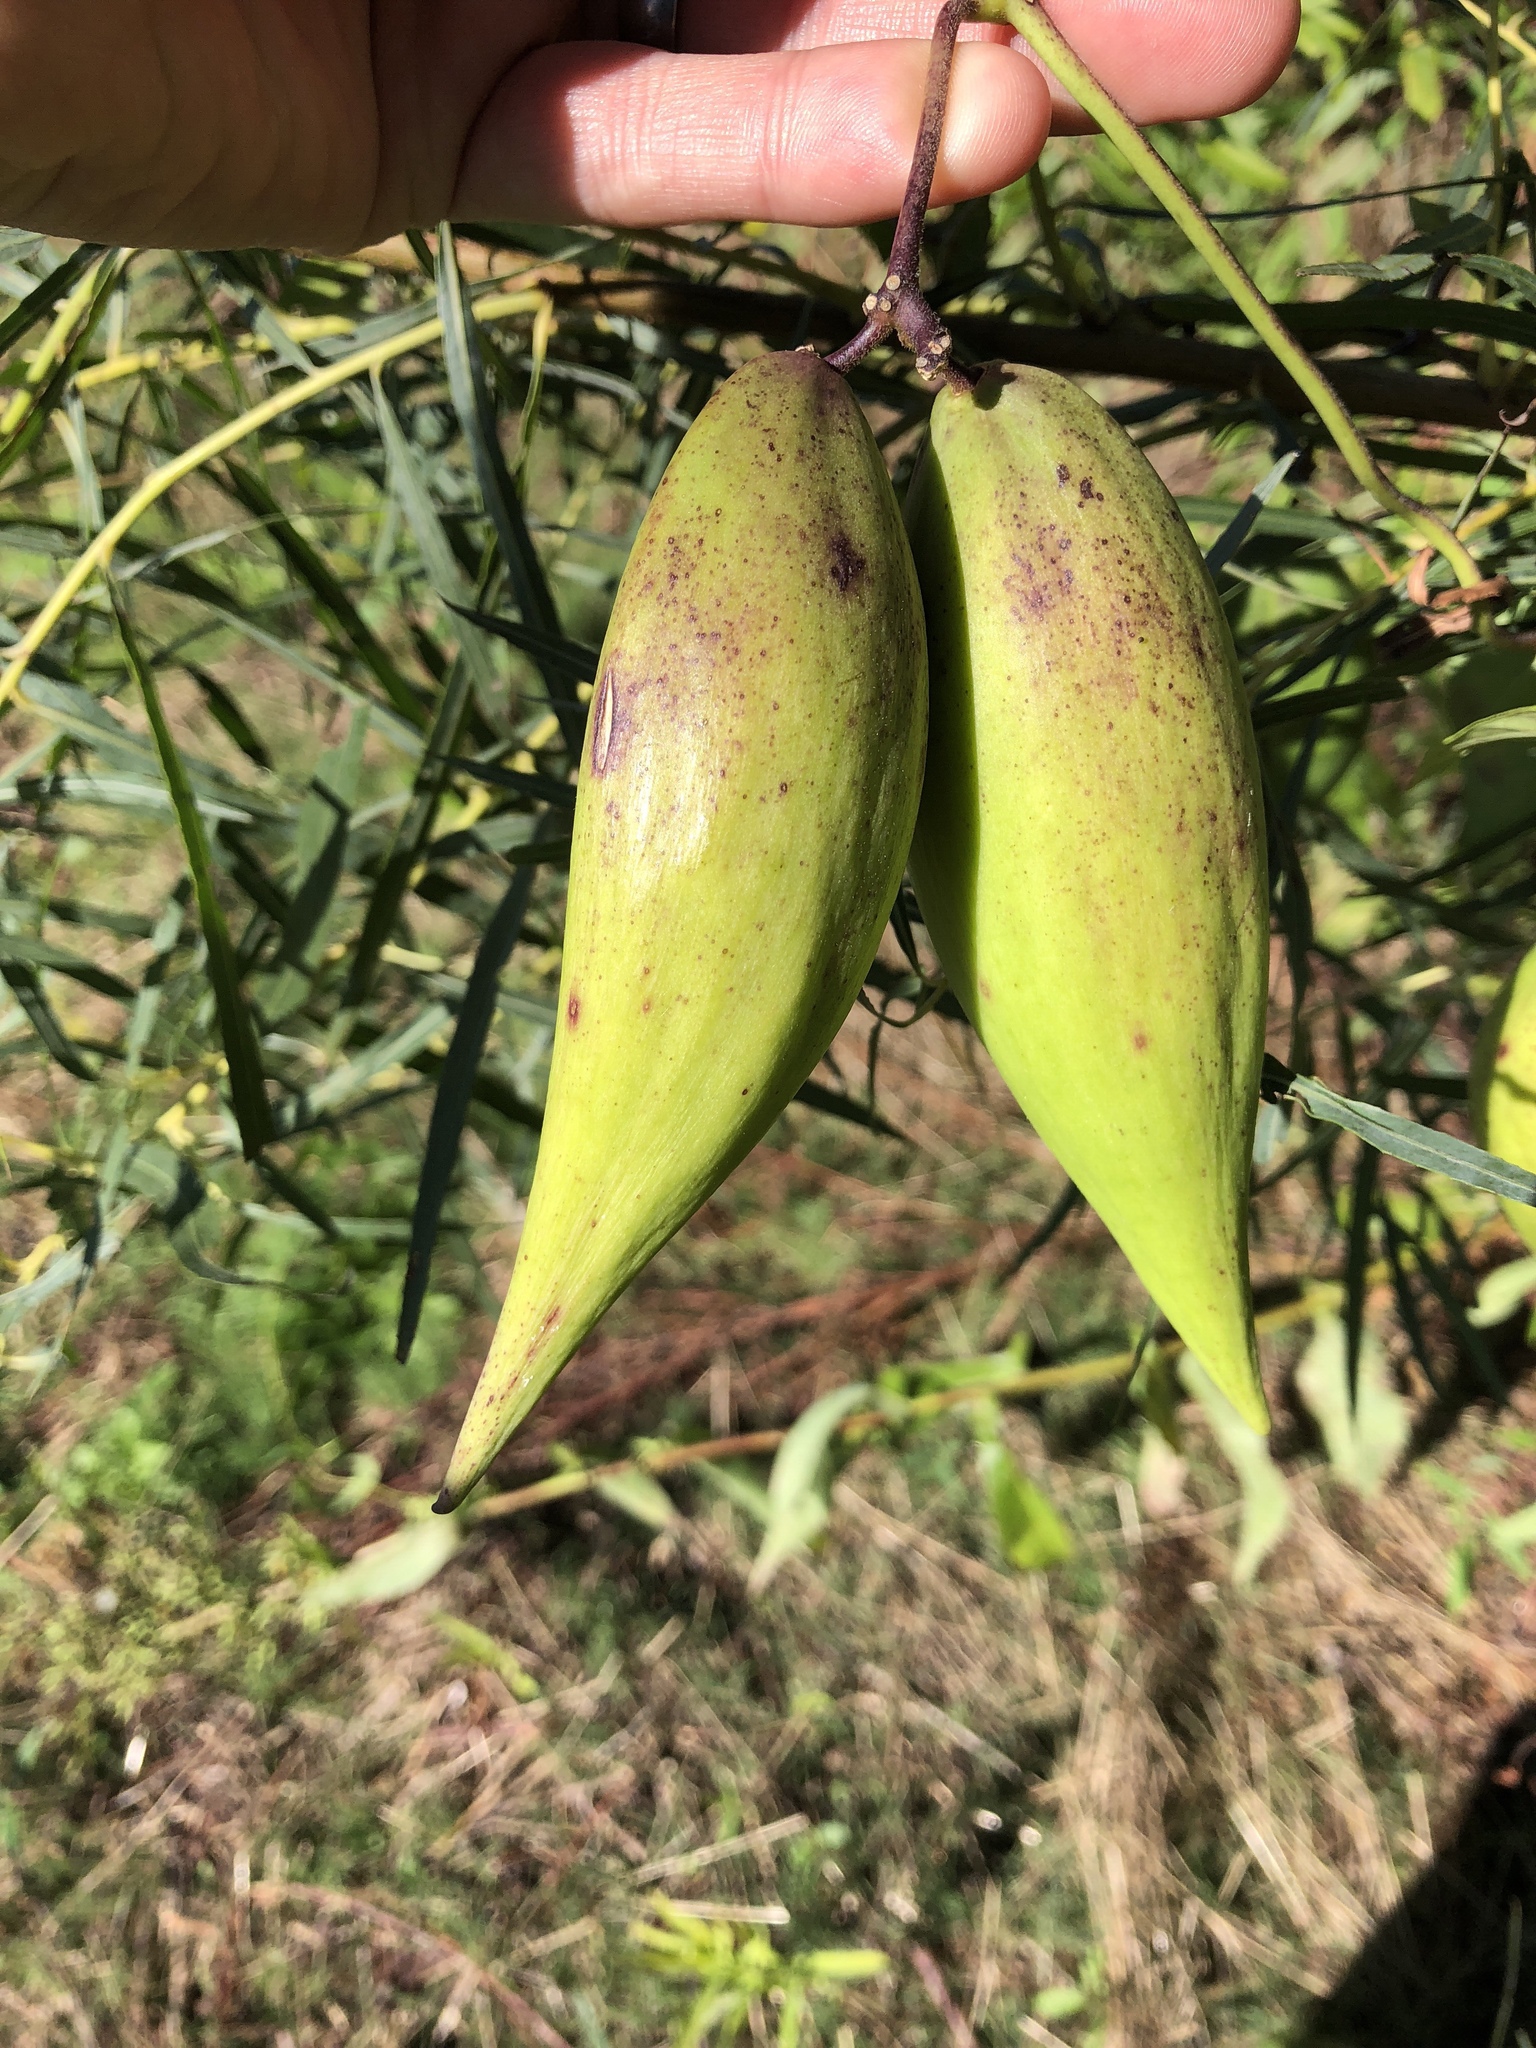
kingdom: Plantae
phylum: Tracheophyta
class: Magnoliopsida
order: Gentianales
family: Apocynaceae
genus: Cynanchum
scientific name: Cynanchum laeve
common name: Sandvine
